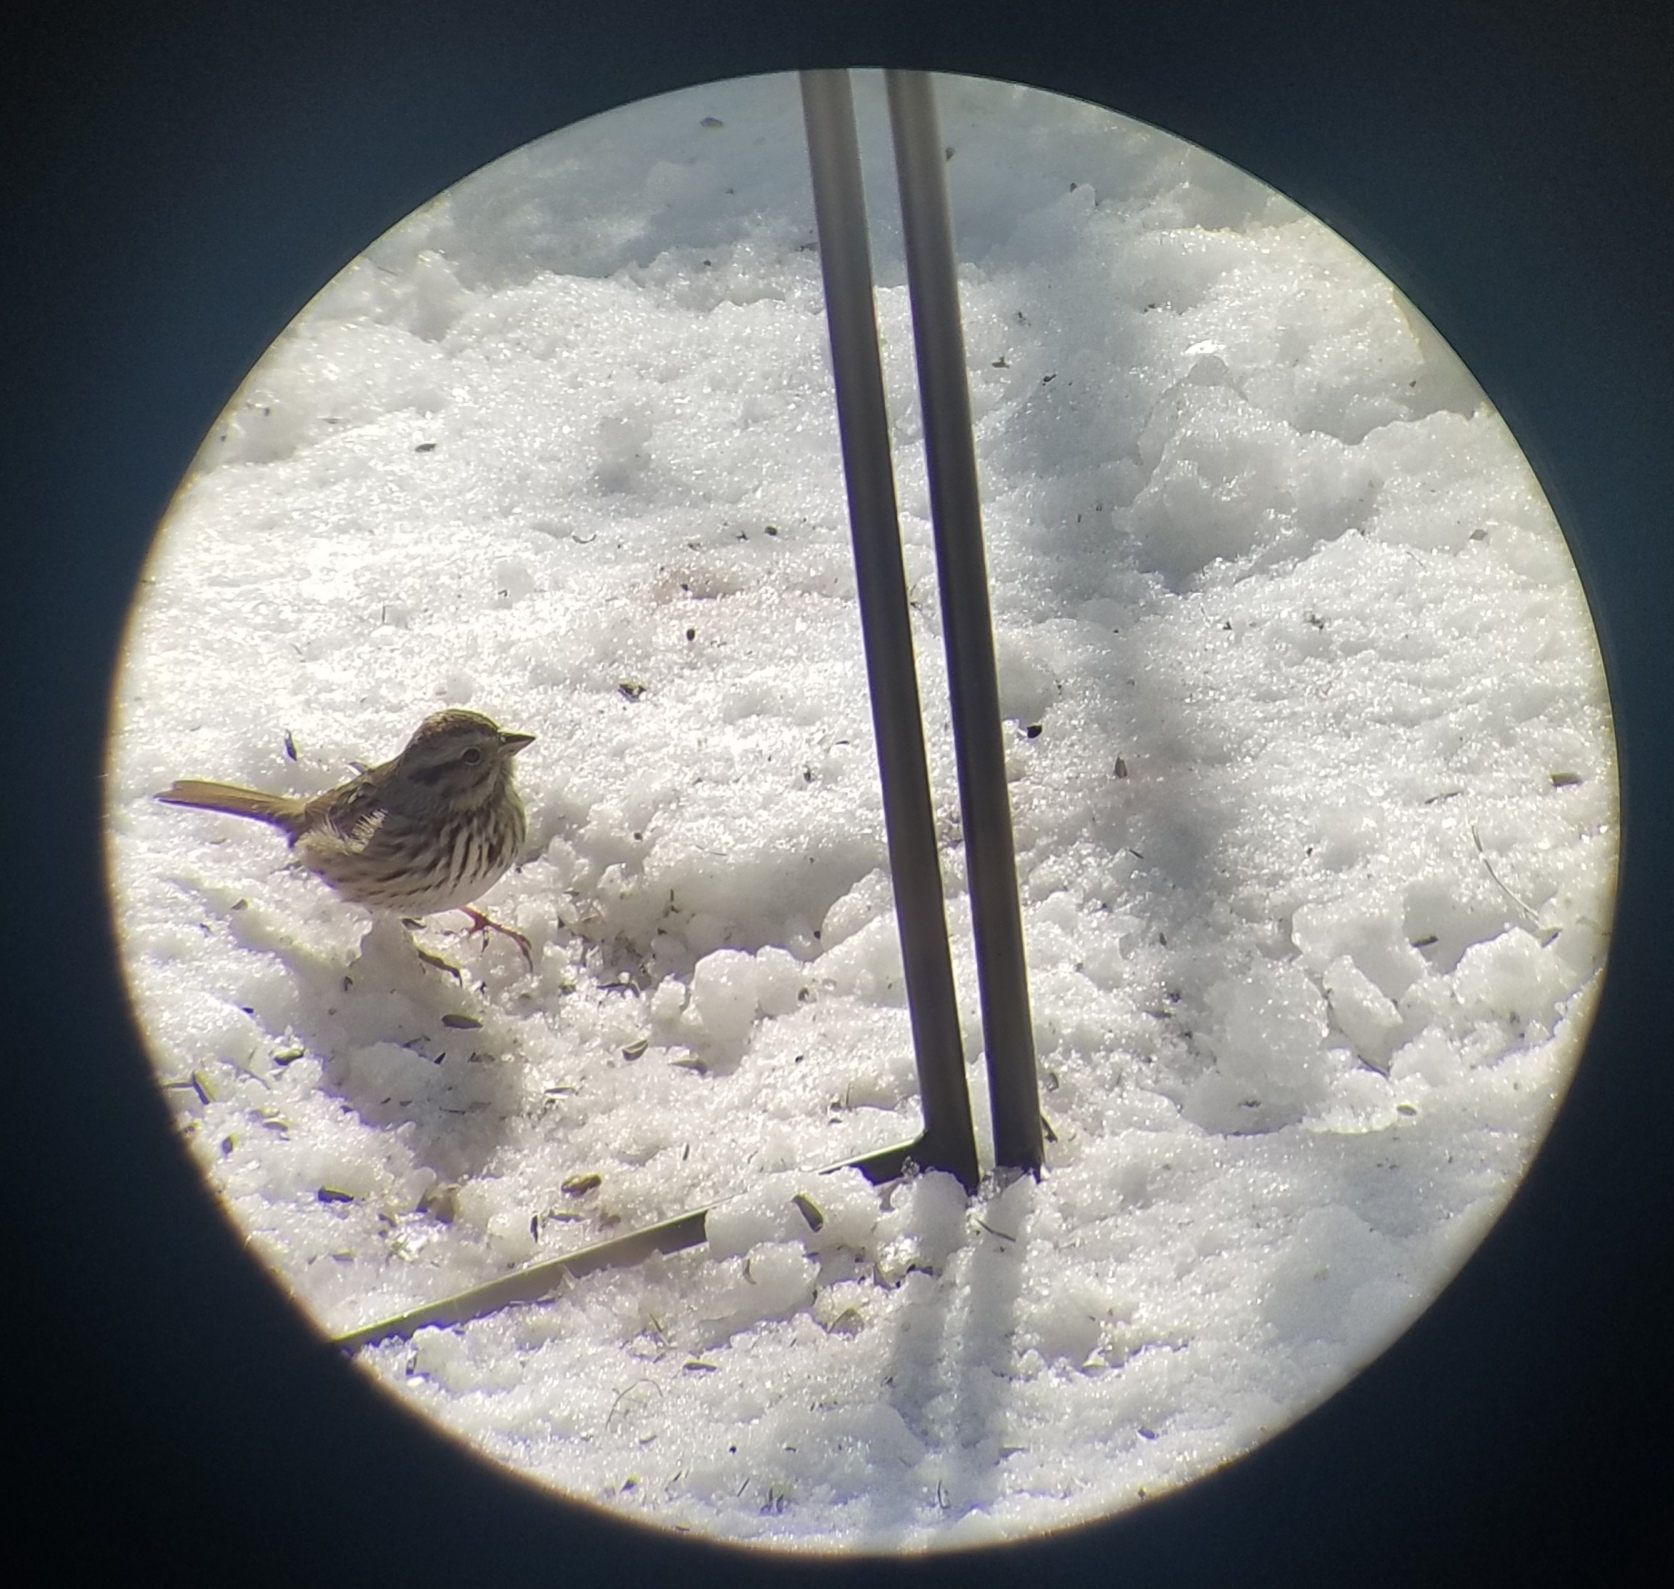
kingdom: Animalia
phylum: Chordata
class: Aves
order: Passeriformes
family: Passerellidae
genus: Melospiza
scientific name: Melospiza melodia
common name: Song sparrow
